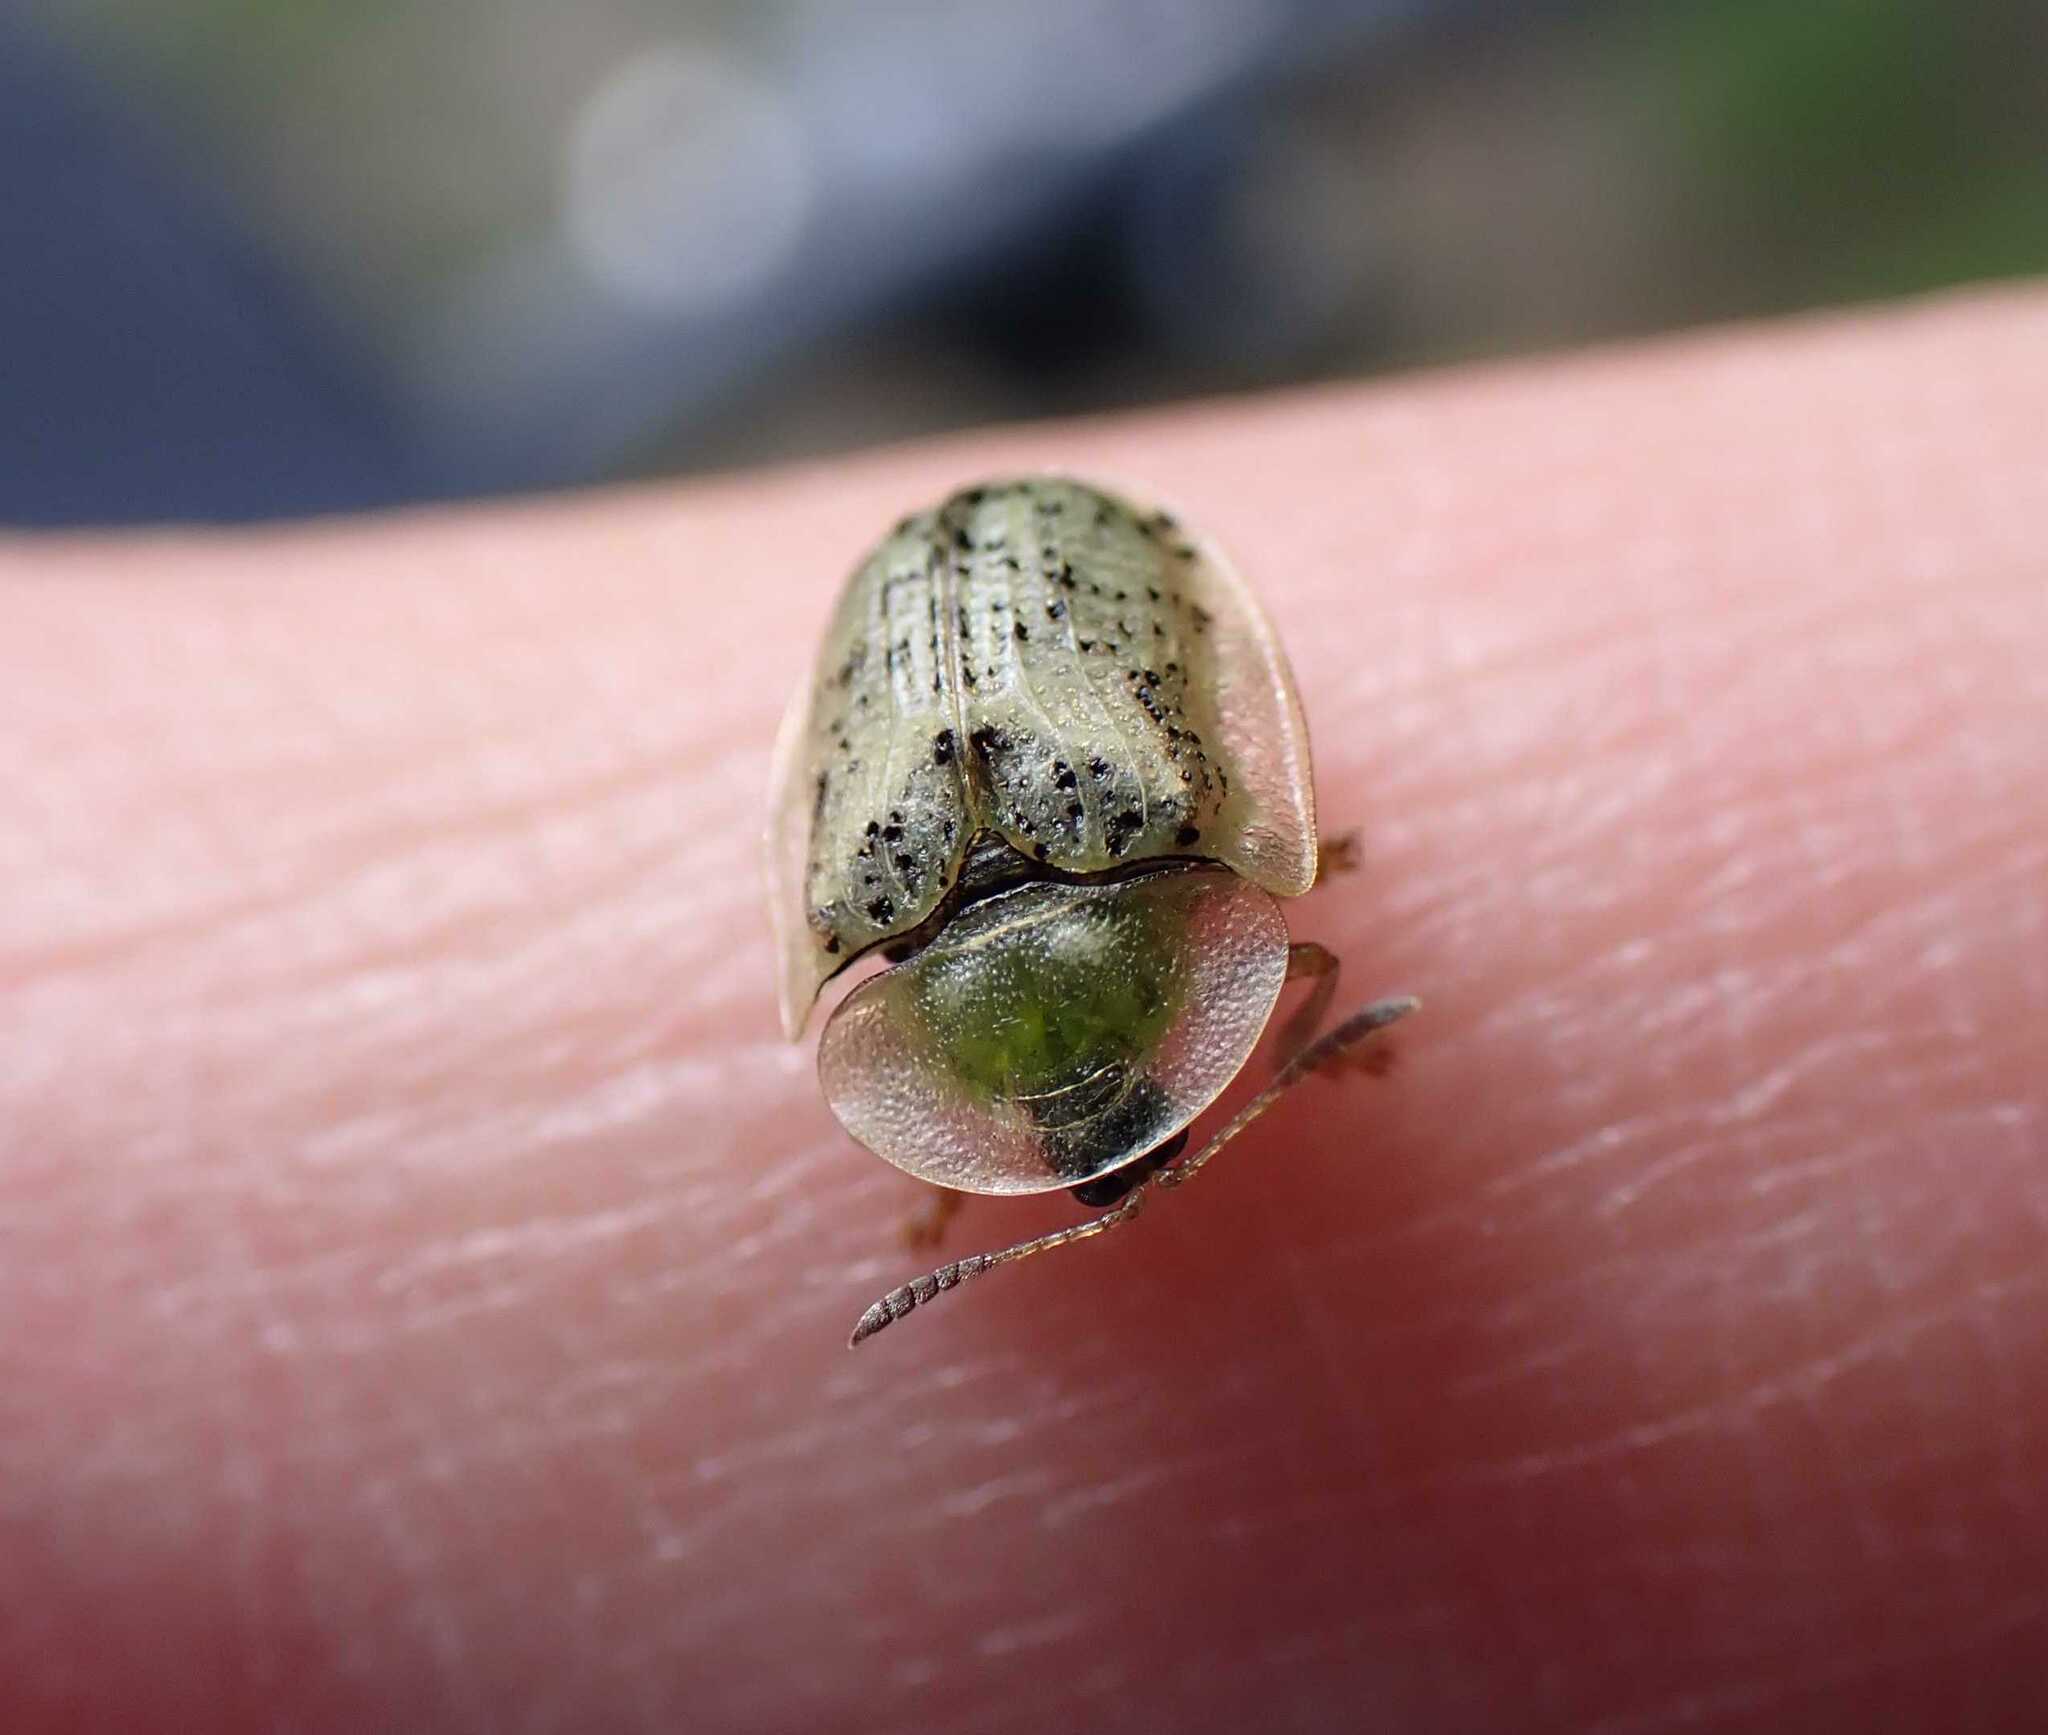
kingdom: Animalia
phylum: Arthropoda
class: Insecta
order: Coleoptera
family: Chrysomelidae
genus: Cassida
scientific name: Cassida nebulosa
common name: Beet tortoise beetle
